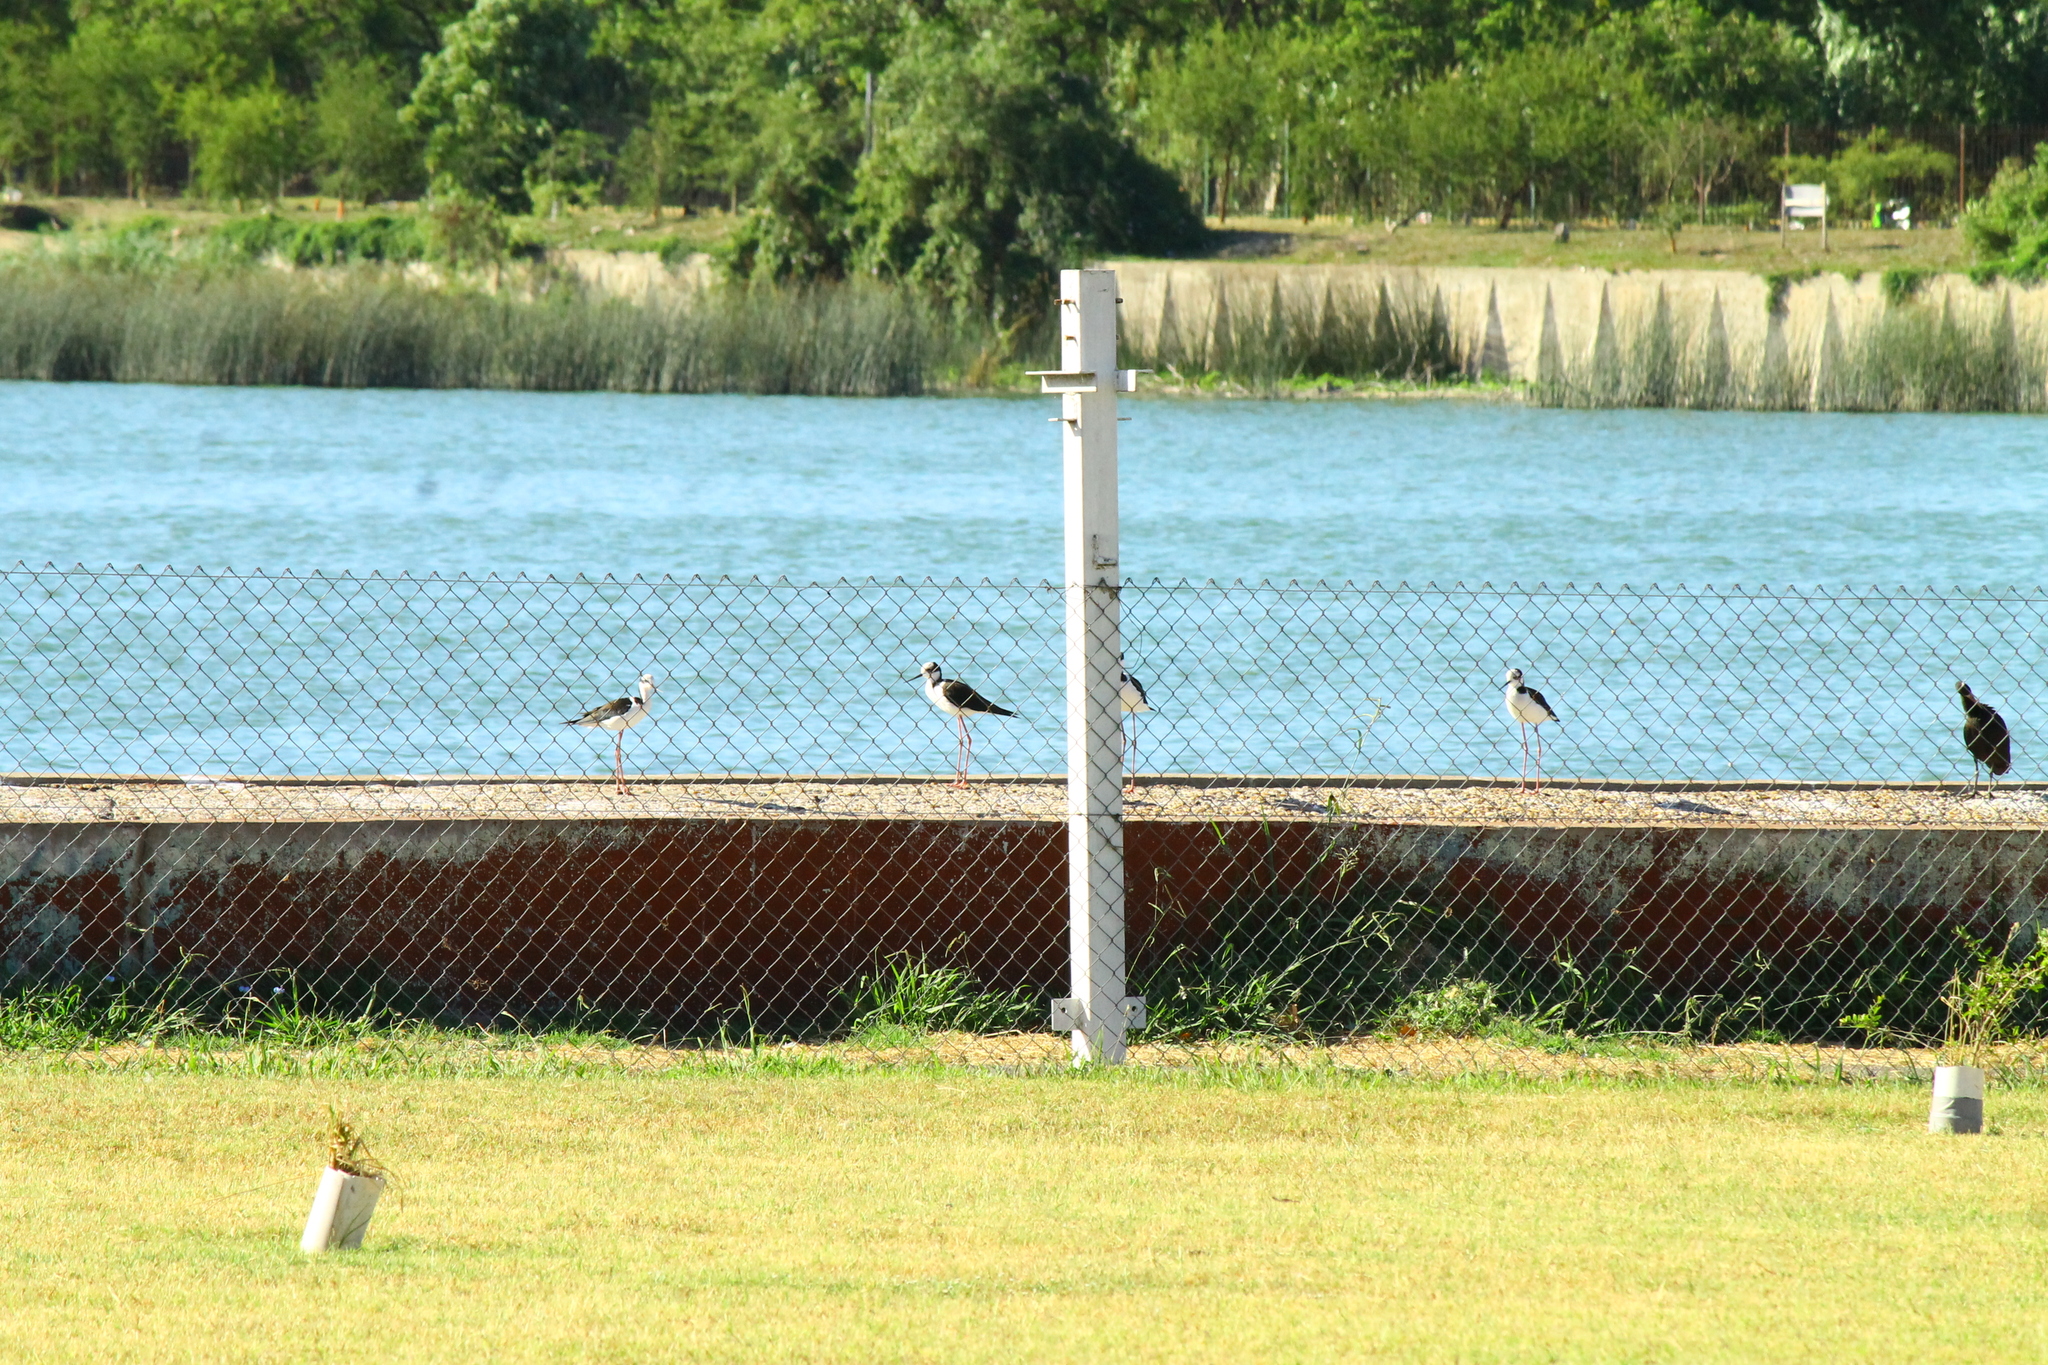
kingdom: Animalia
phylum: Chordata
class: Aves
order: Charadriiformes
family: Recurvirostridae
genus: Himantopus
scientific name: Himantopus mexicanus
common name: Black-necked stilt
